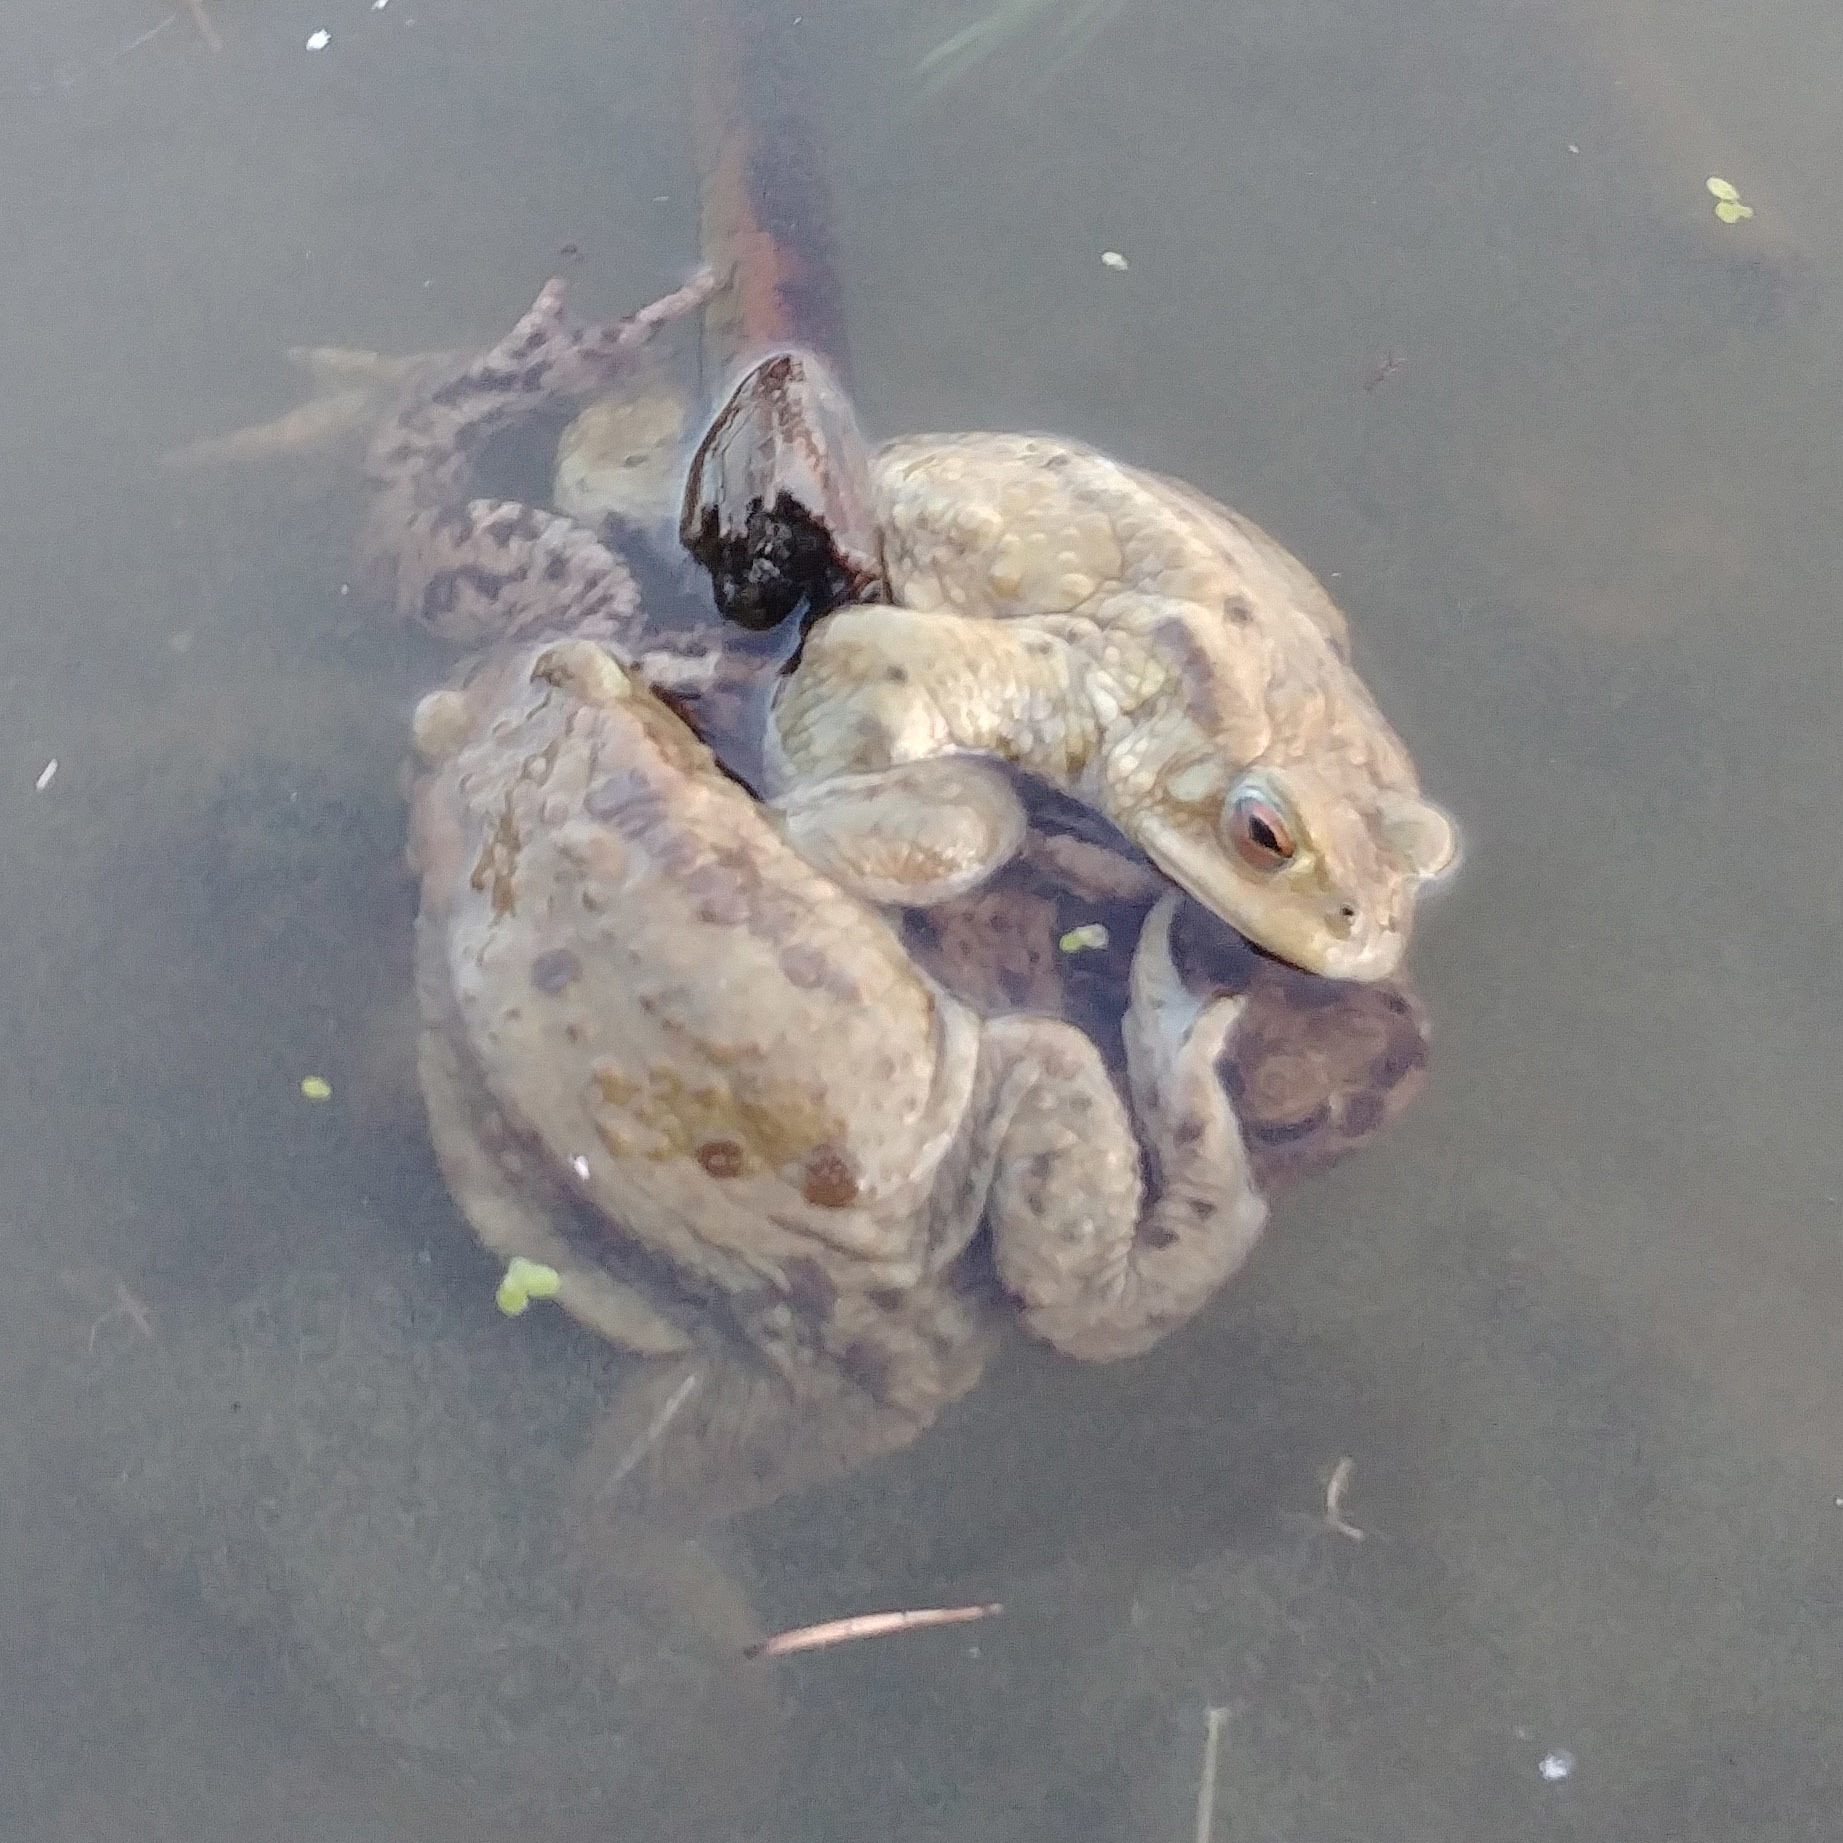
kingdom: Animalia
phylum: Chordata
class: Amphibia
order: Anura
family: Bufonidae
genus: Bufo
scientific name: Bufo bufo
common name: Common toad
